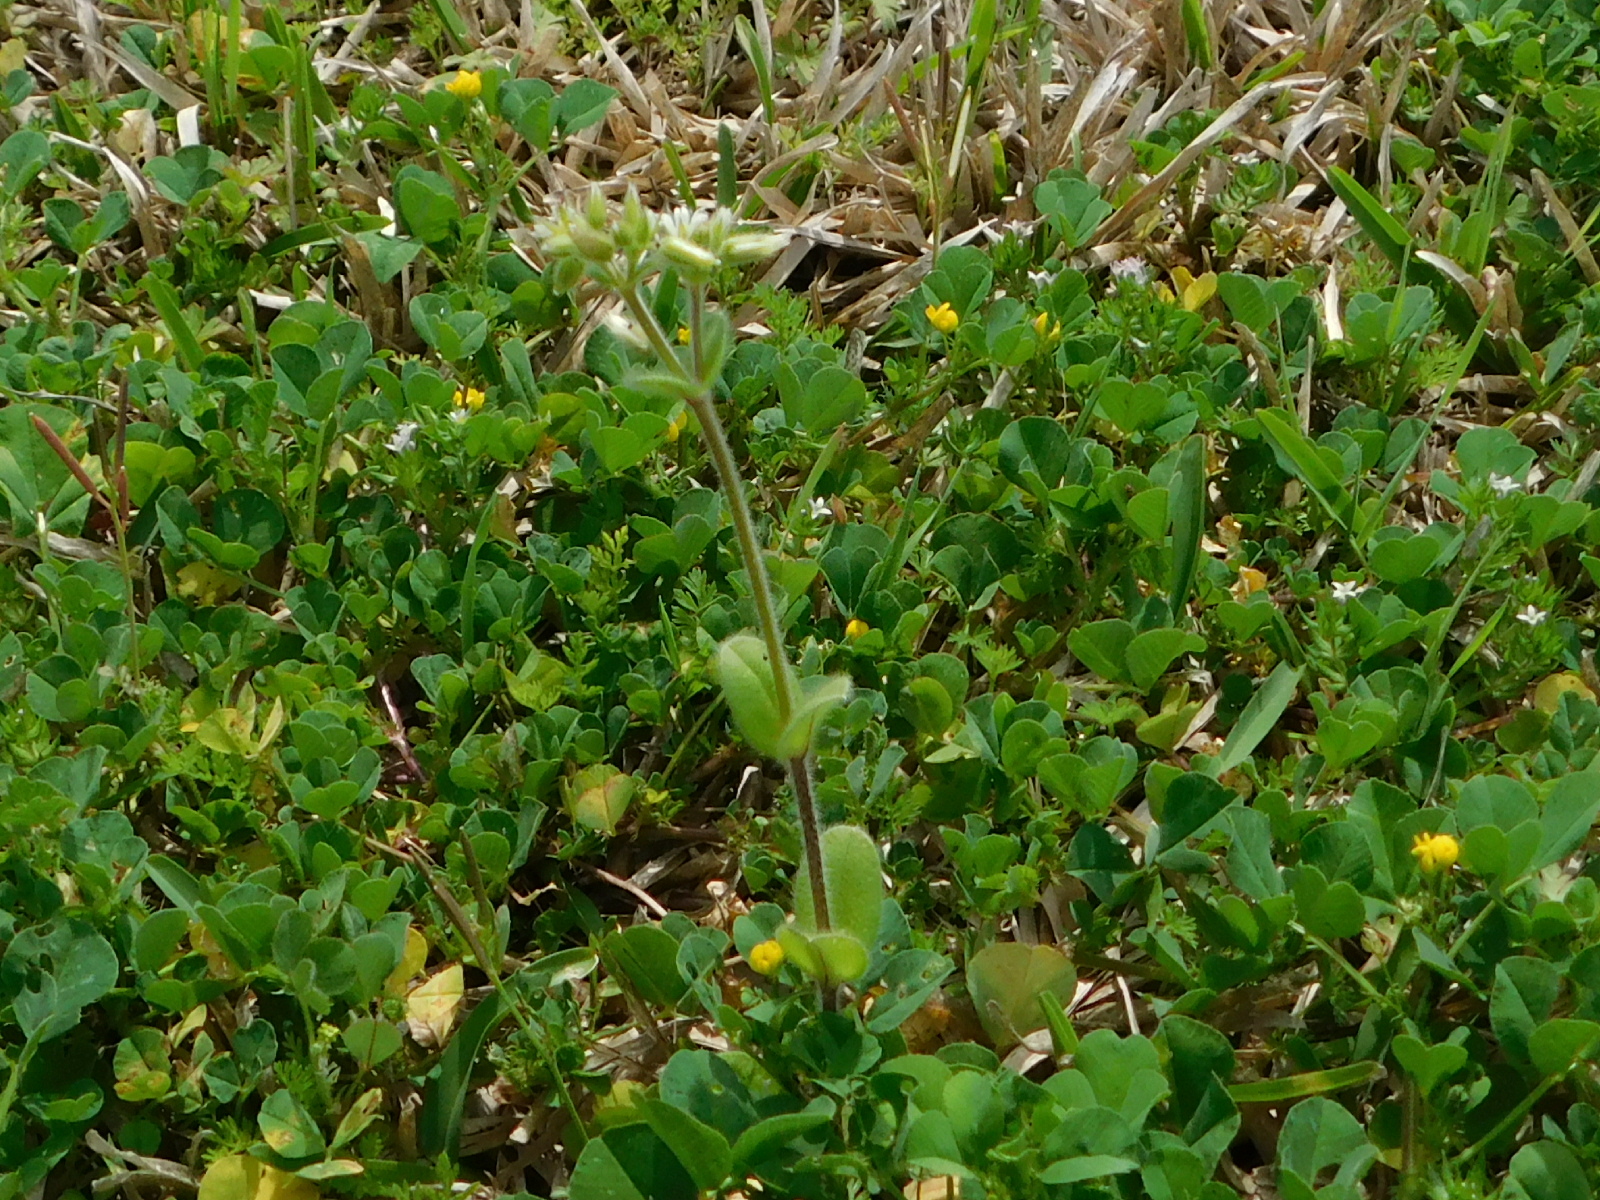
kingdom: Plantae
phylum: Tracheophyta
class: Magnoliopsida
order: Caryophyllales
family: Caryophyllaceae
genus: Cerastium
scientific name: Cerastium glomeratum
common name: Sticky chickweed
